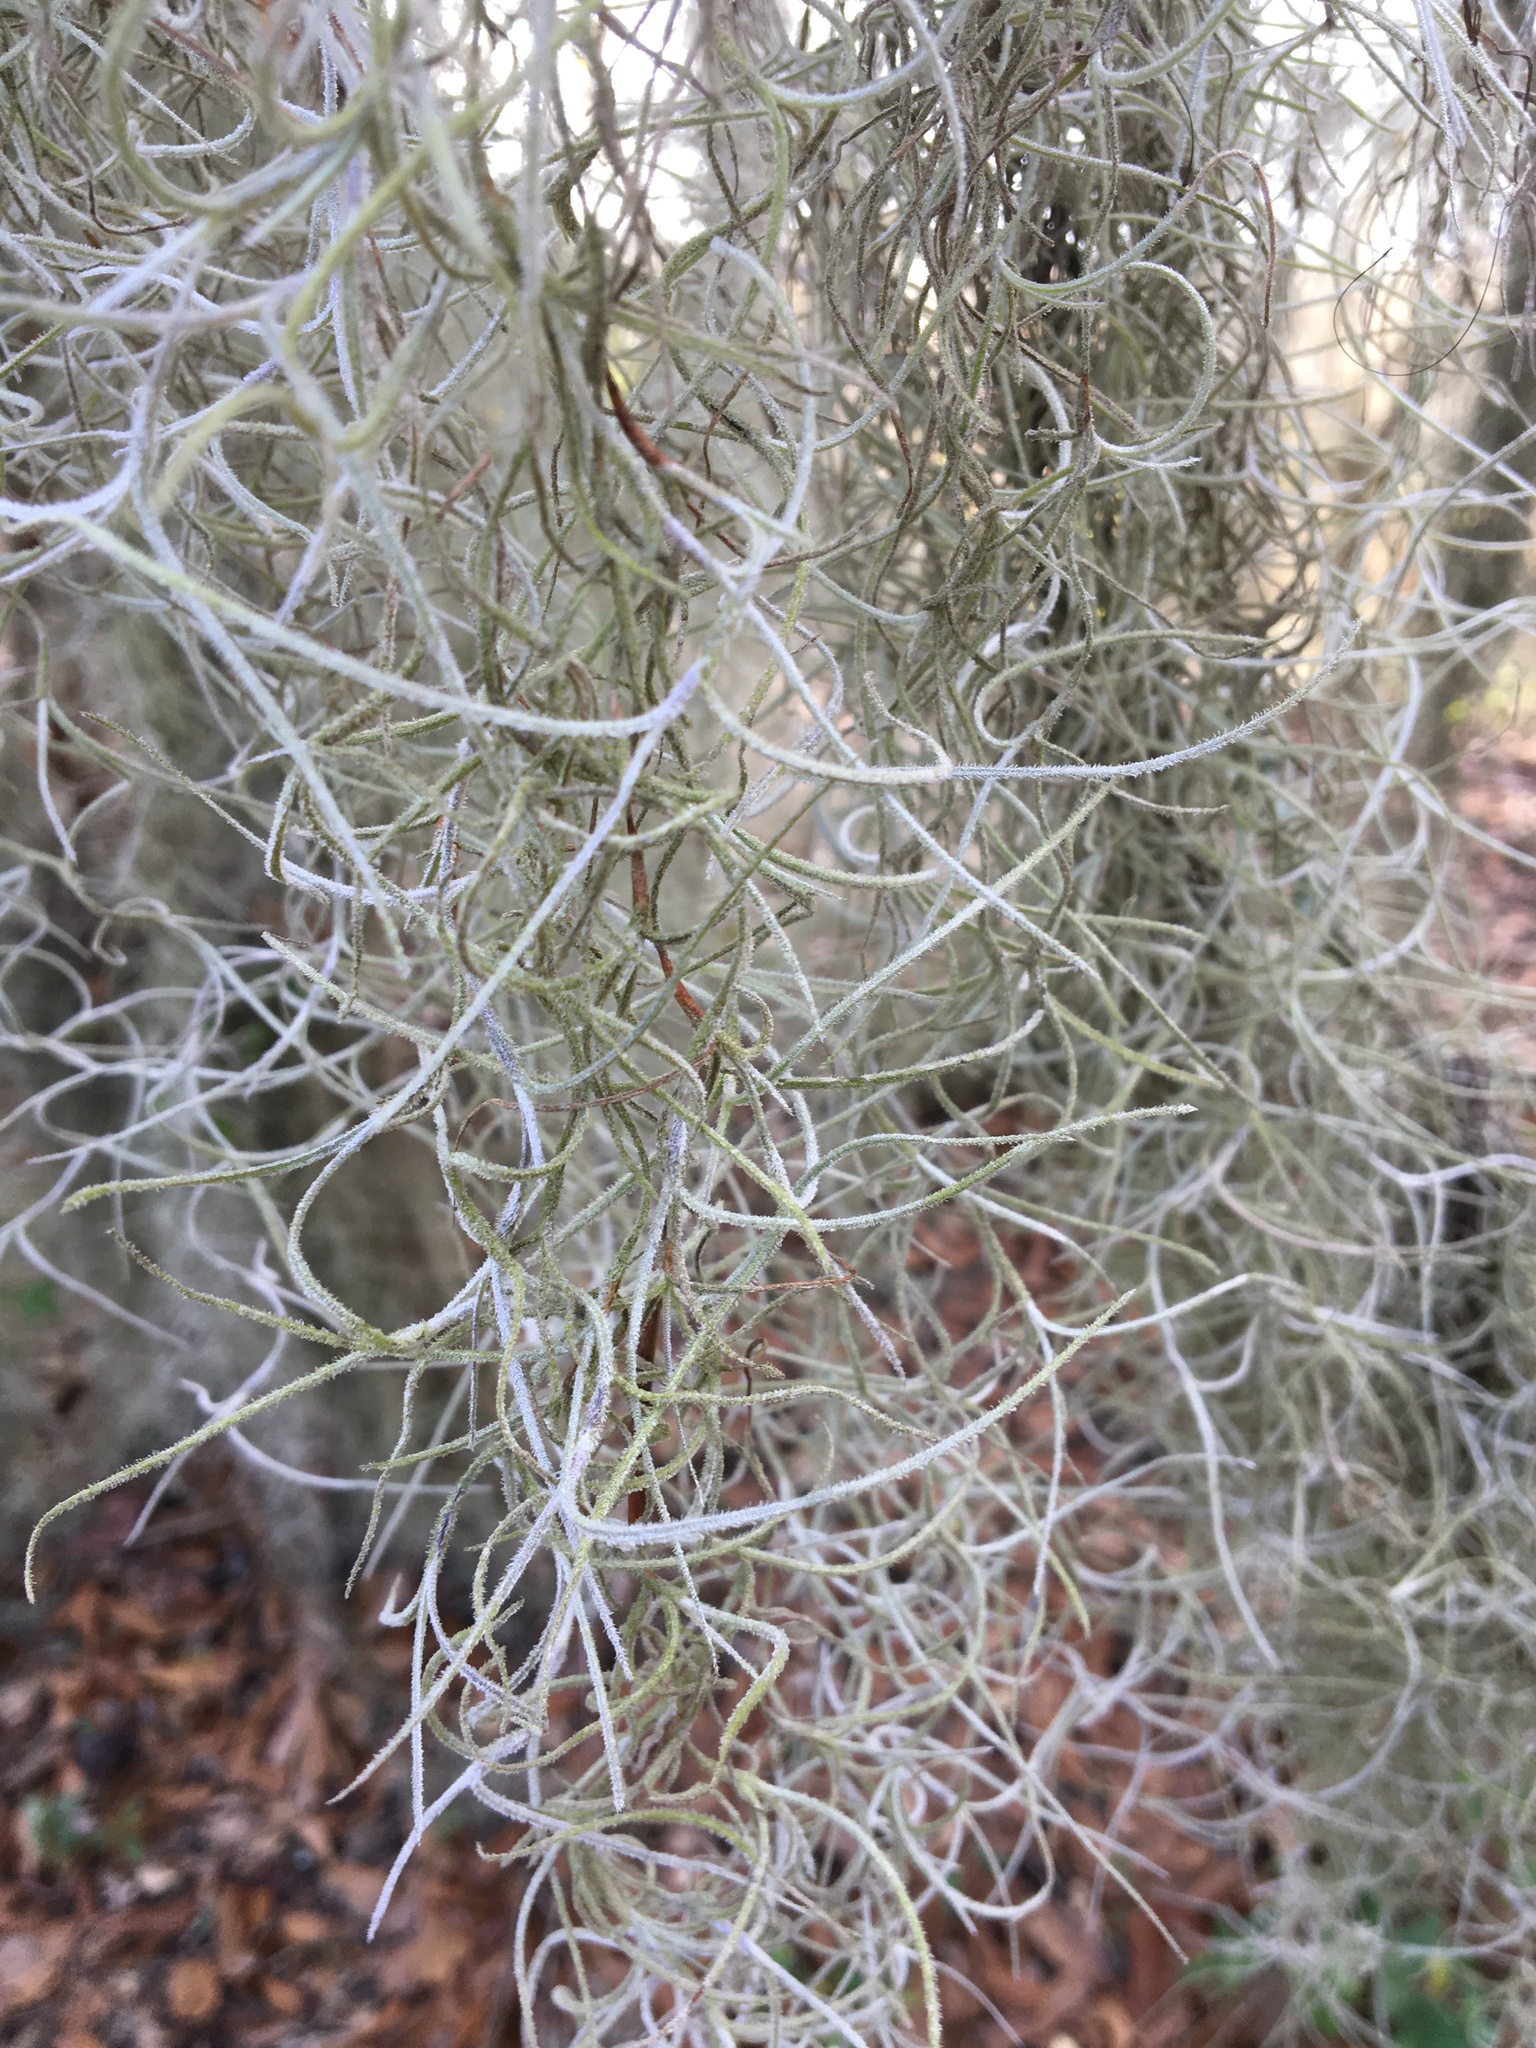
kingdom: Plantae
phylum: Tracheophyta
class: Liliopsida
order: Poales
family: Bromeliaceae
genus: Tillandsia
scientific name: Tillandsia usneoides
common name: Spanish moss
